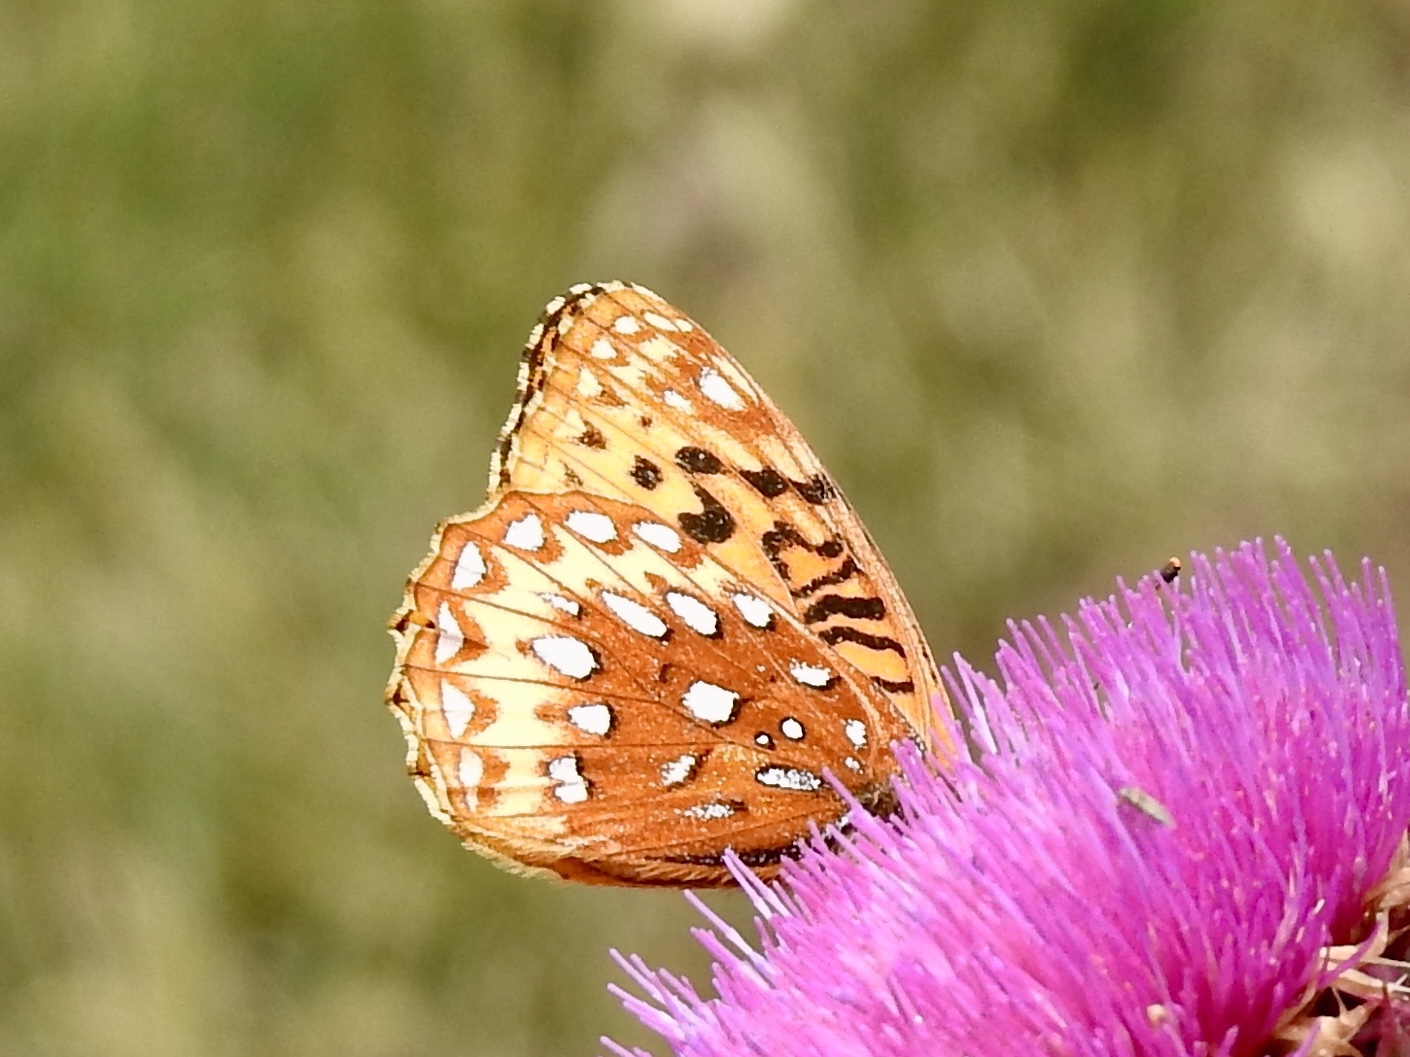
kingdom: Animalia
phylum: Arthropoda
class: Insecta
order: Lepidoptera
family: Nymphalidae
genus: Speyeria
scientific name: Speyeria atlantis
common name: Atlantis fritillary
